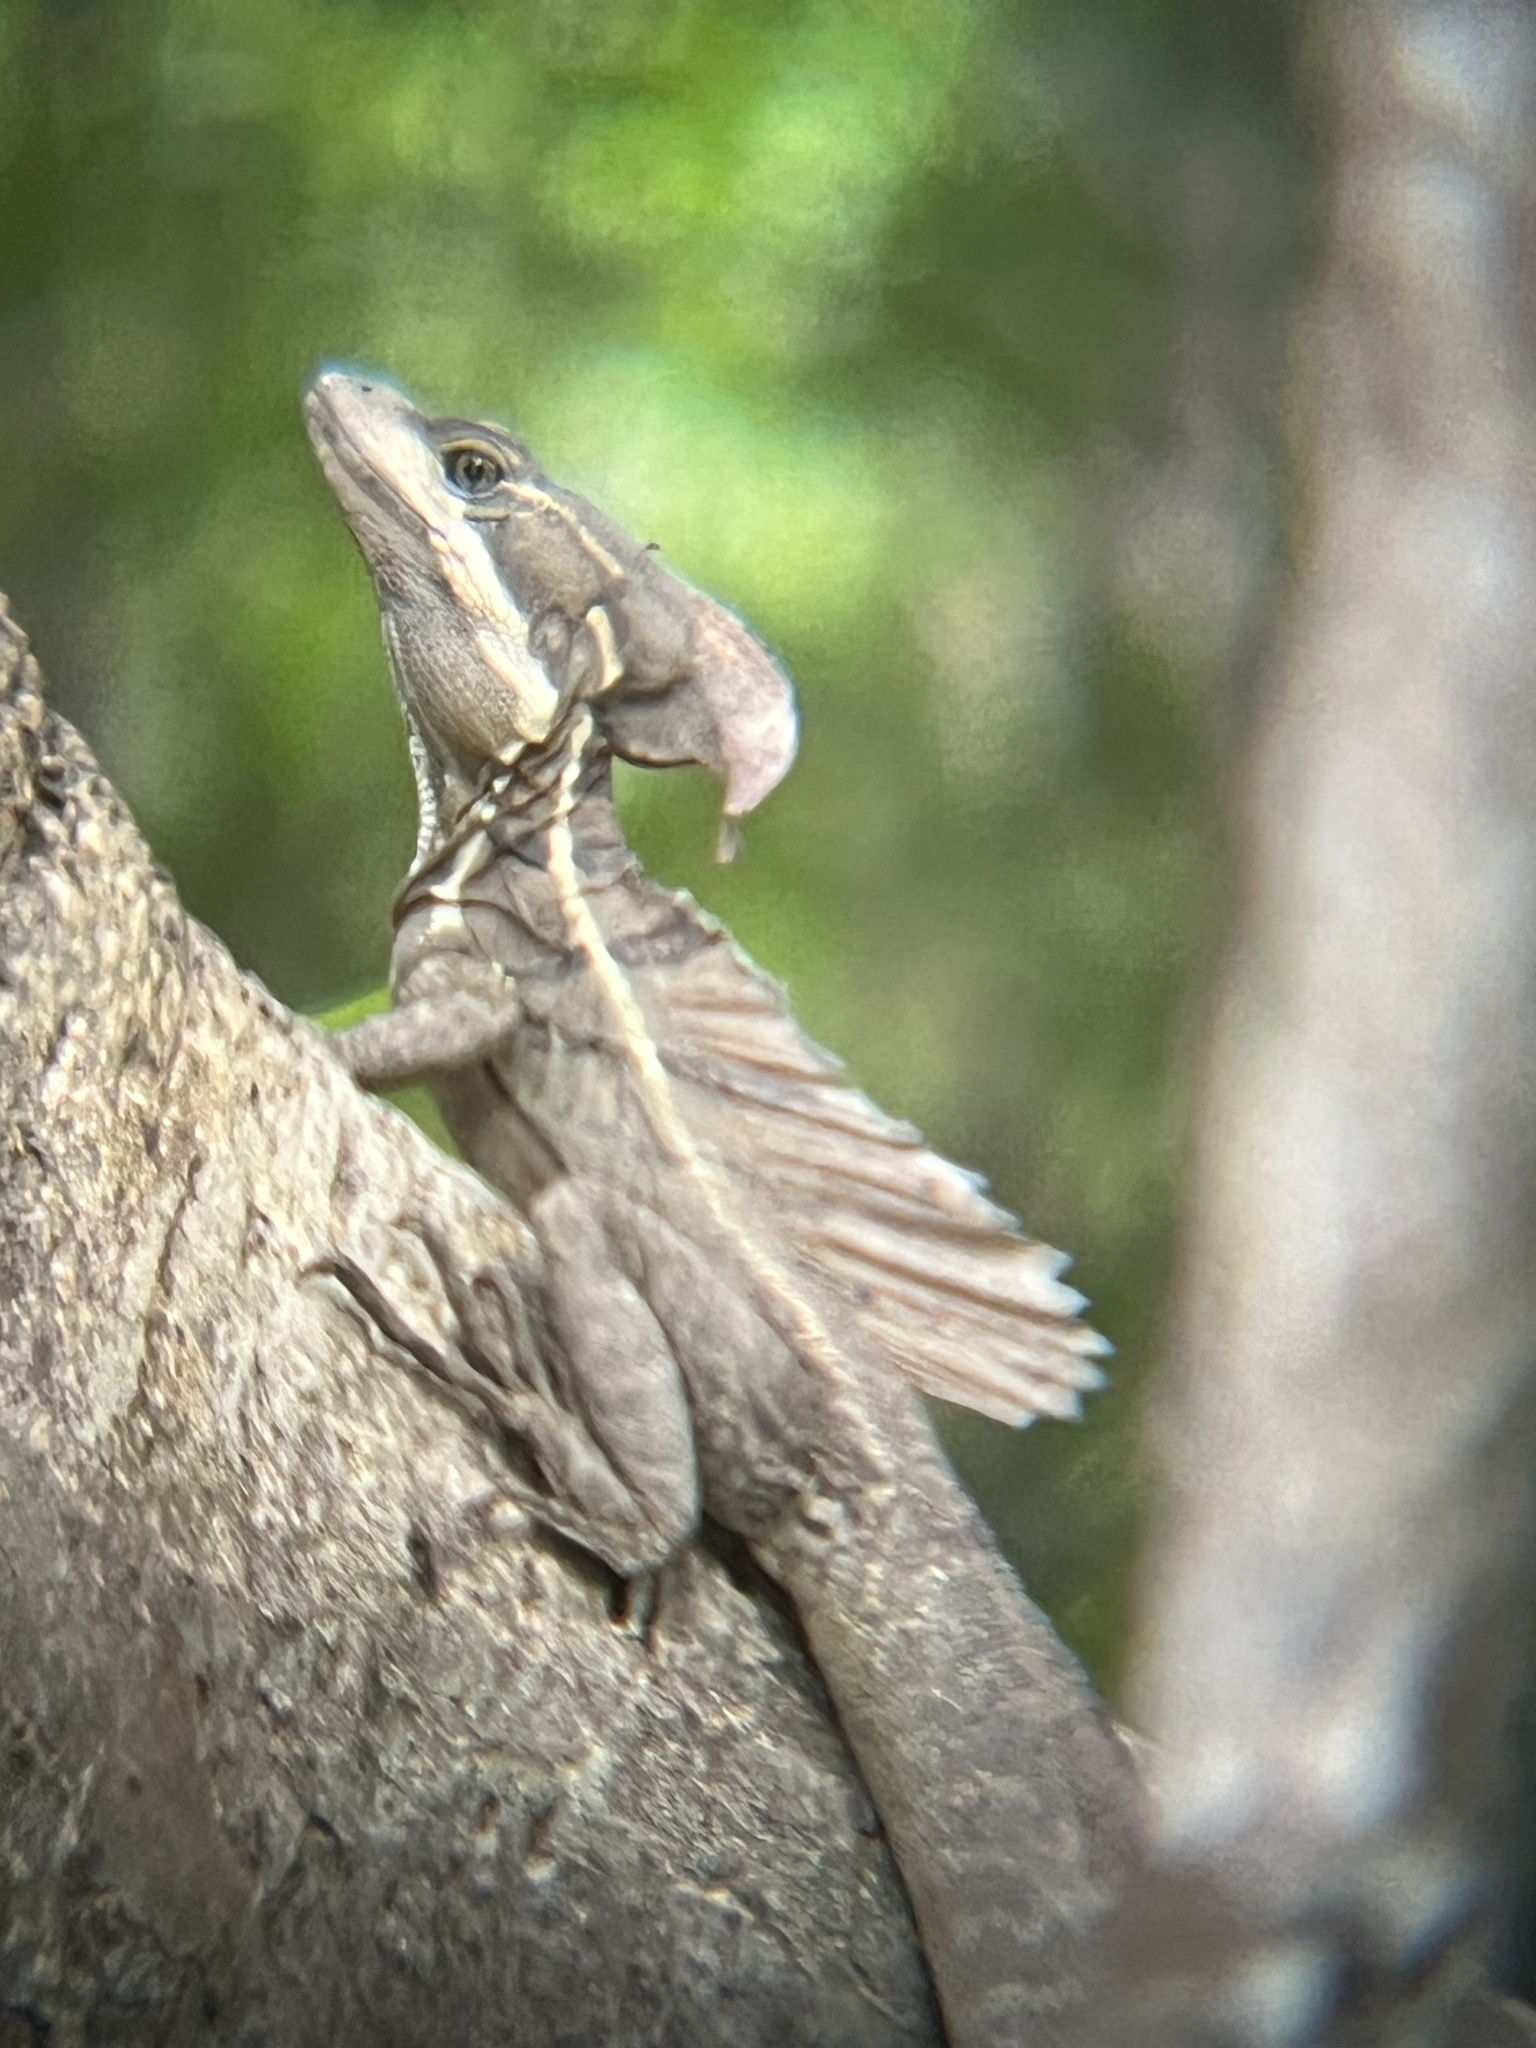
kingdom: Animalia
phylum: Chordata
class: Squamata
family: Corytophanidae
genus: Basiliscus
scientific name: Basiliscus basiliscus
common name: Common basilisk
